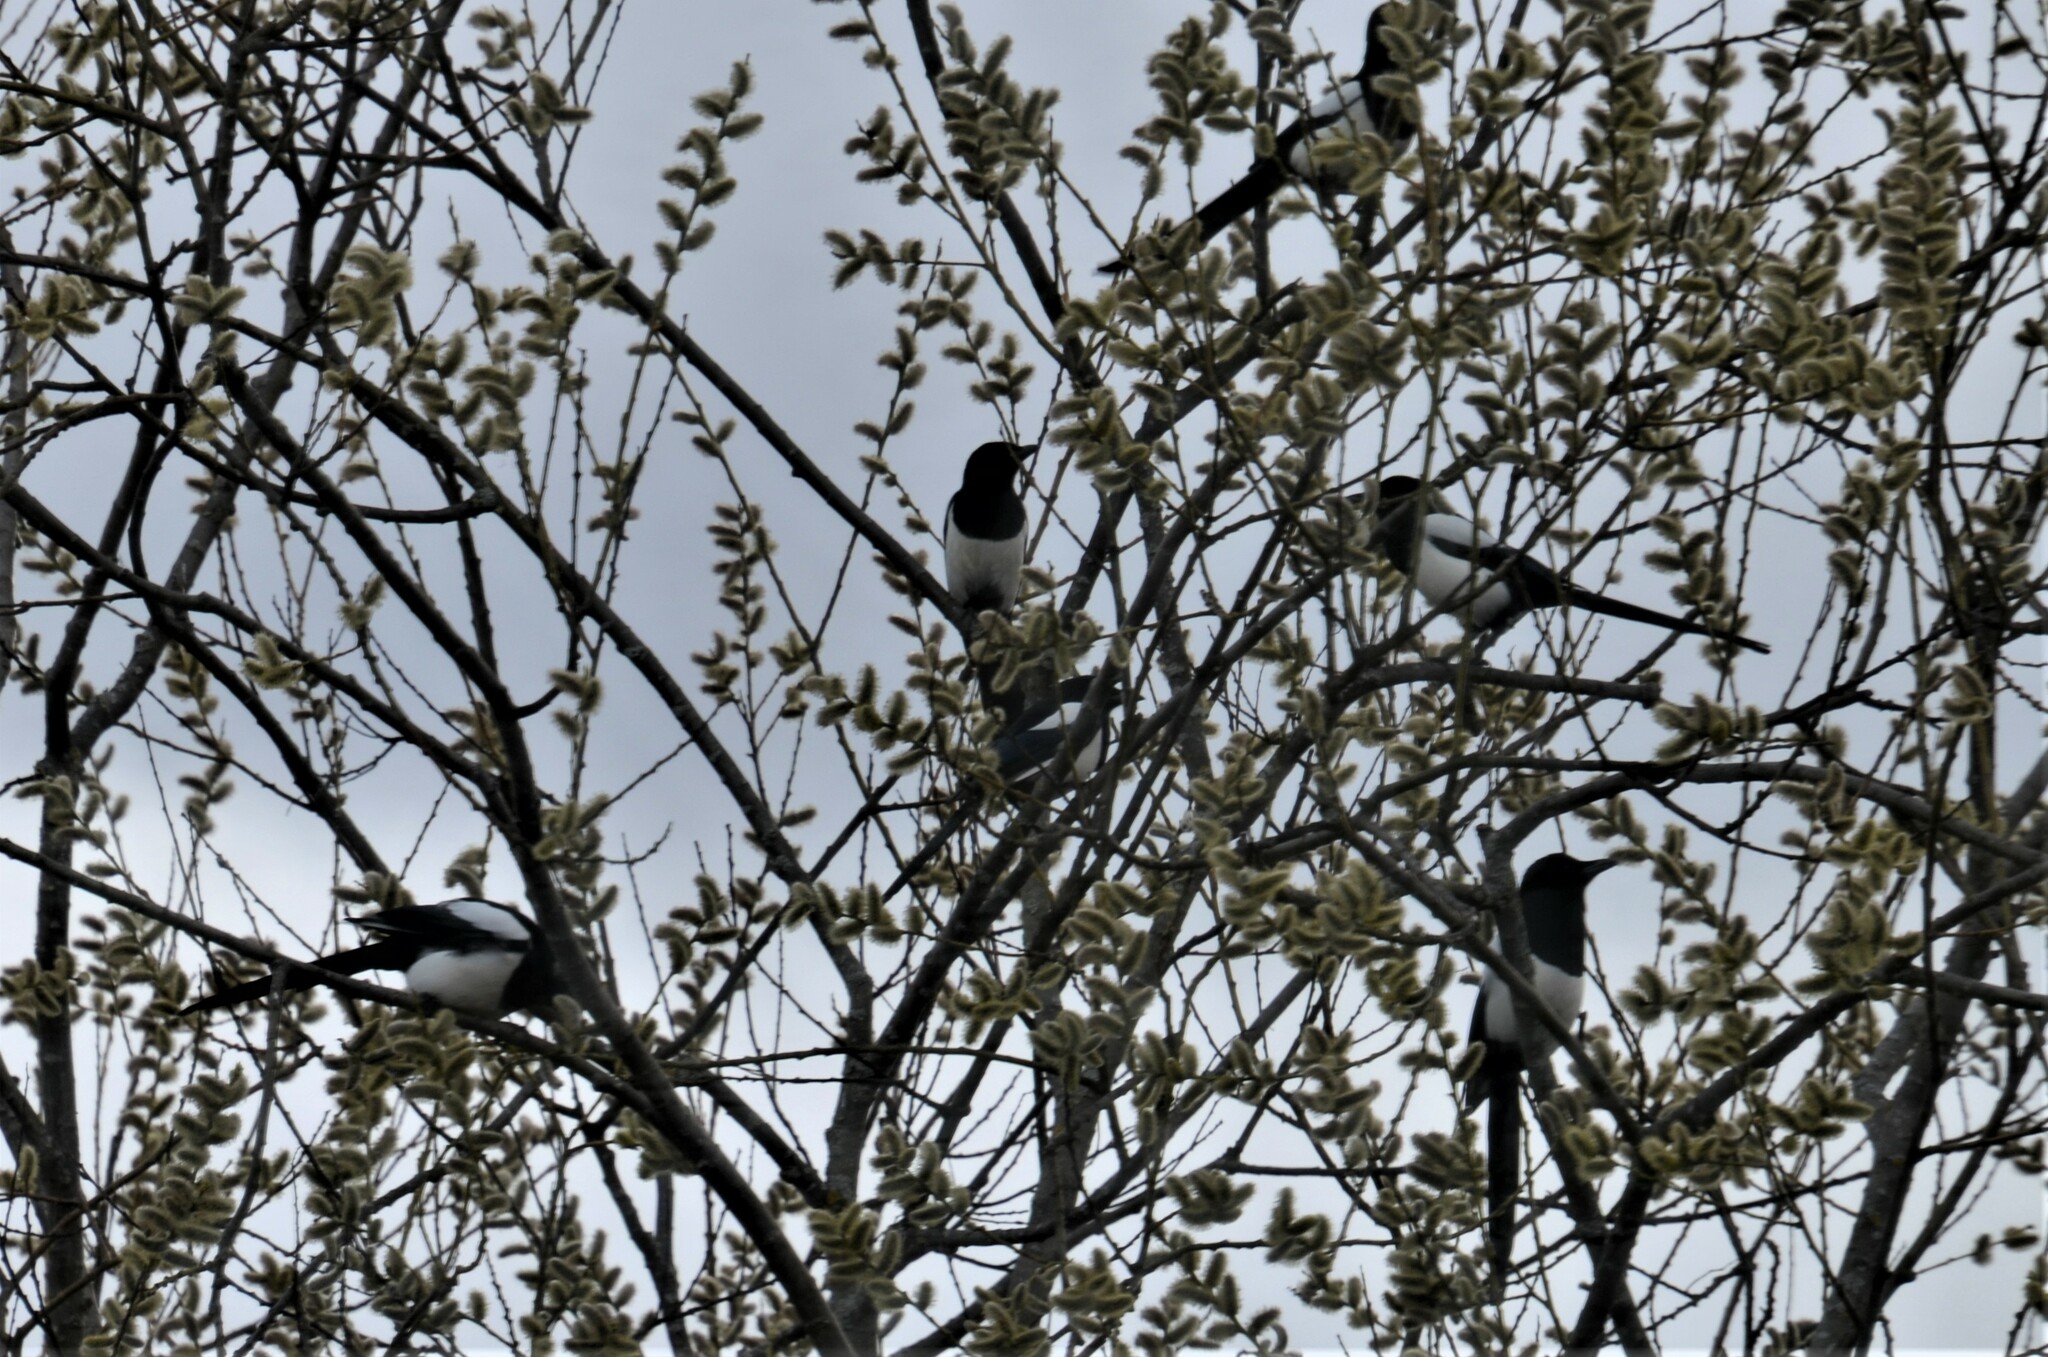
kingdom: Animalia
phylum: Chordata
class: Aves
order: Passeriformes
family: Corvidae
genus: Pica
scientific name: Pica pica
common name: Eurasian magpie
